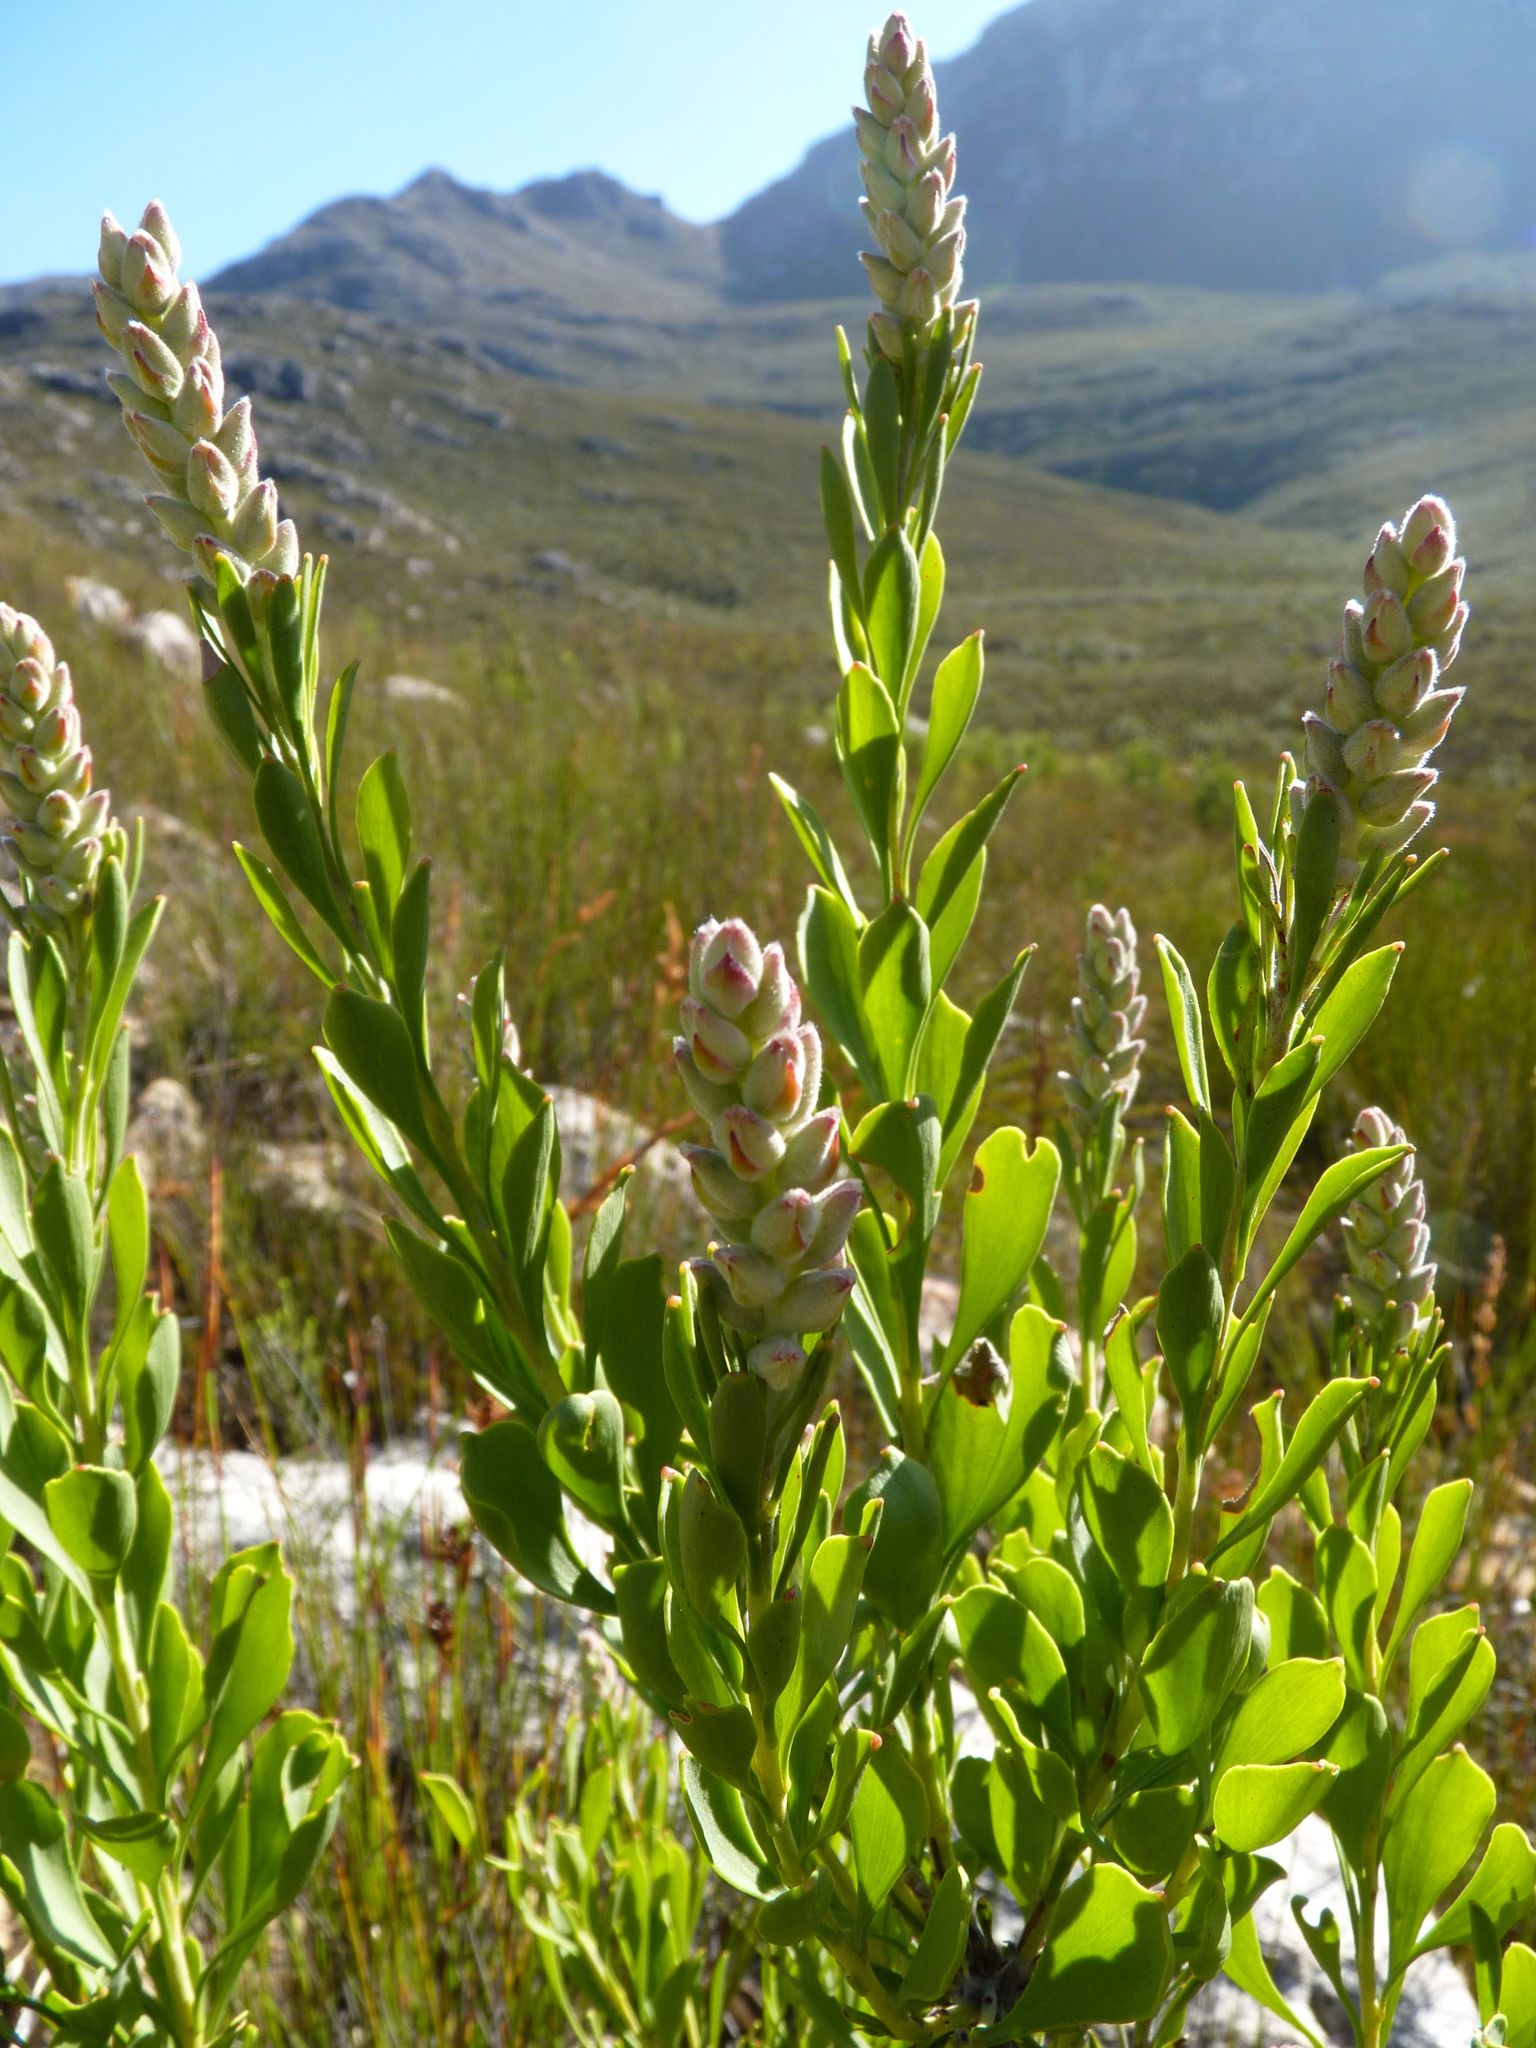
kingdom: Plantae
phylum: Tracheophyta
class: Magnoliopsida
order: Proteales
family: Proteaceae
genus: Paranomus
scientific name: Paranomus dregei
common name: Scented sceptre
